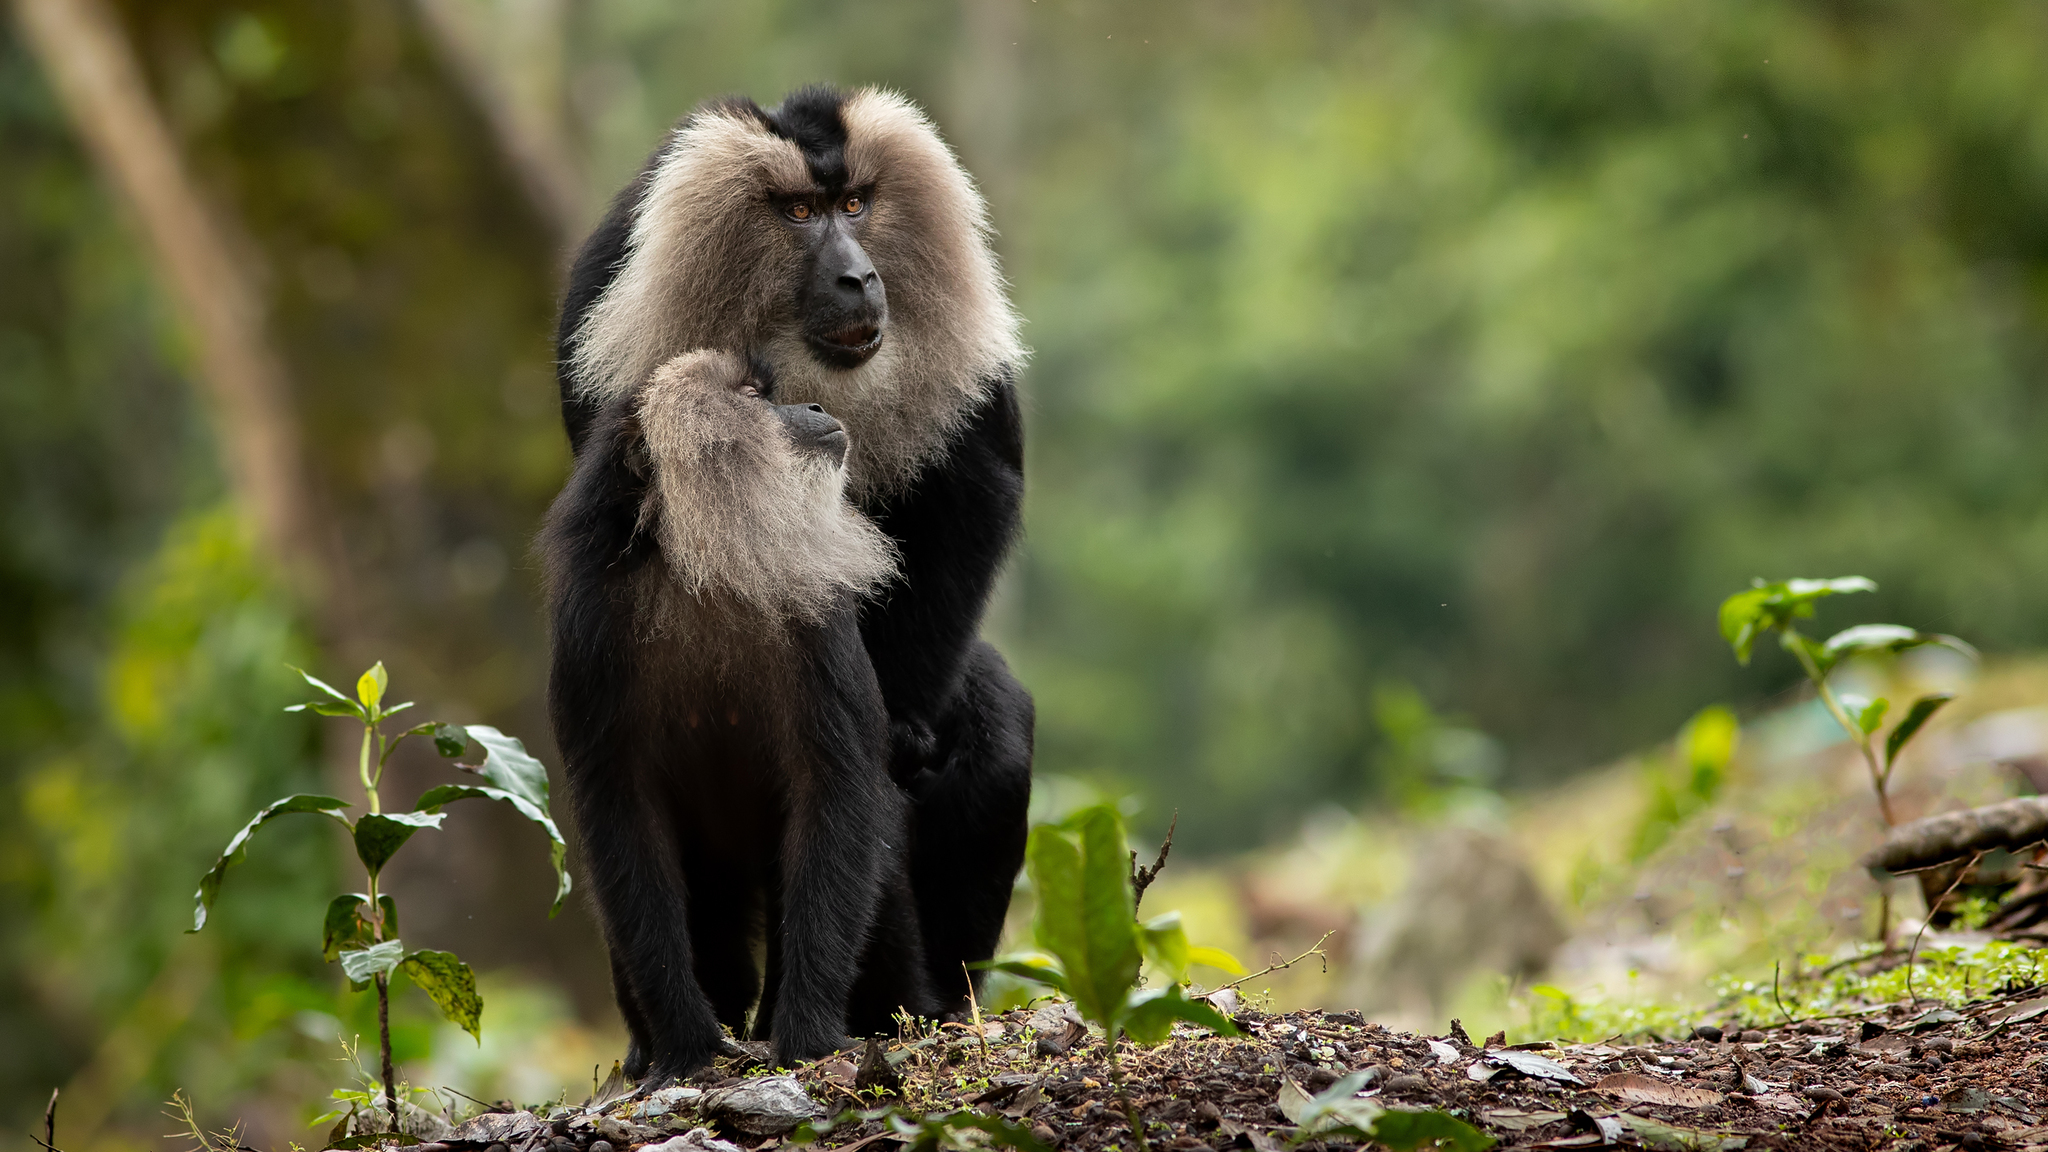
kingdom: Animalia
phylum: Chordata
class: Mammalia
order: Primates
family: Cercopithecidae
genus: Macaca
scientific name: Macaca silenus
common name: Lion-tailed macaque
